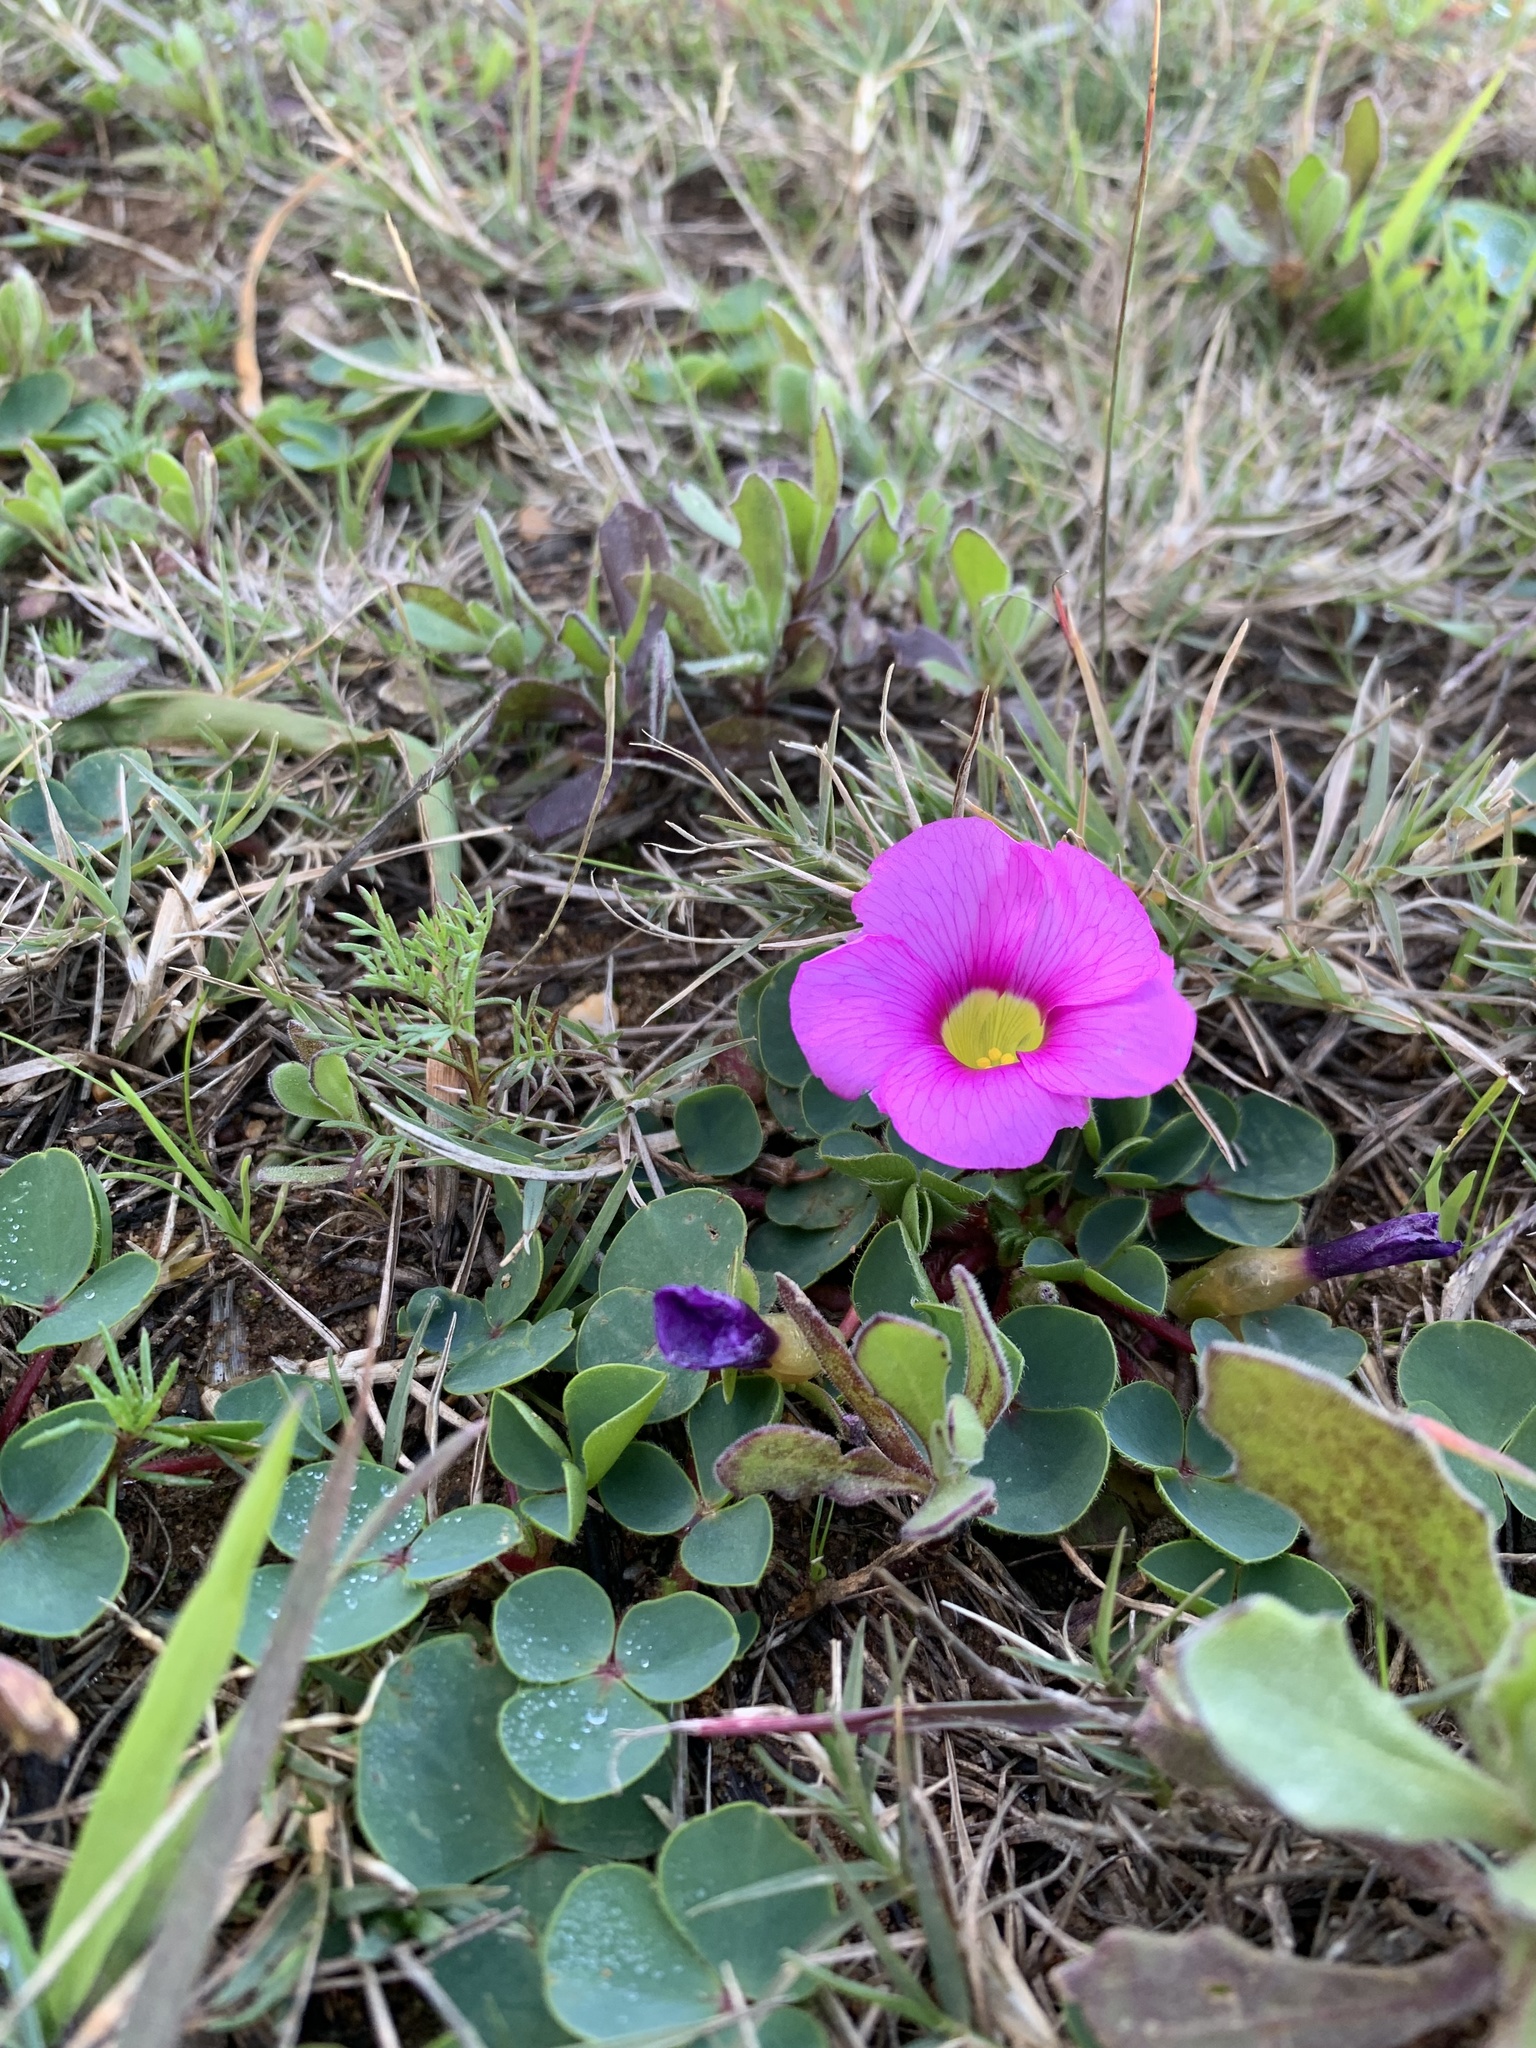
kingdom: Plantae
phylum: Tracheophyta
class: Magnoliopsida
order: Oxalidales
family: Oxalidaceae
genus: Oxalis
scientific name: Oxalis purpurea
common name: Purple woodsorrel
